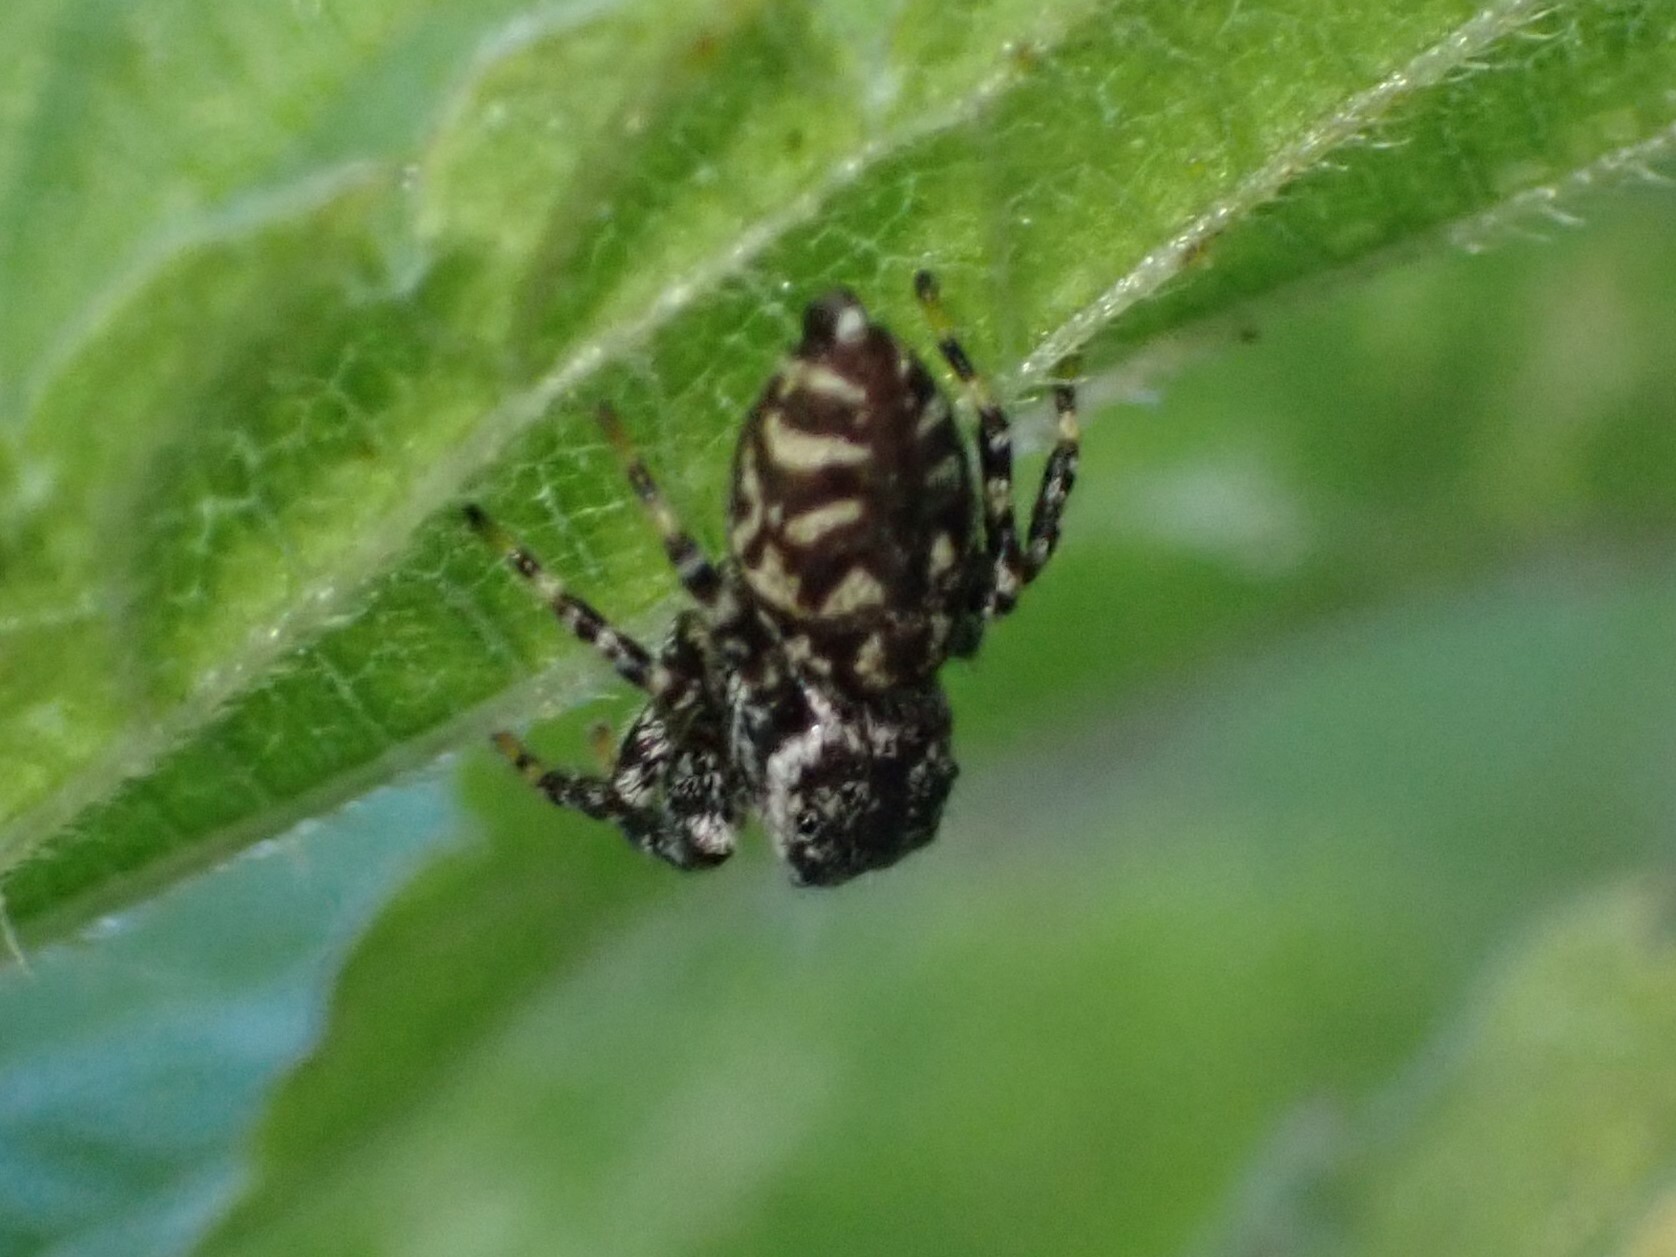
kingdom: Animalia
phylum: Arthropoda
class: Arachnida
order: Araneae
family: Salticidae
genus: Pelegrina
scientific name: Pelegrina galathea
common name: Jumping spiders
